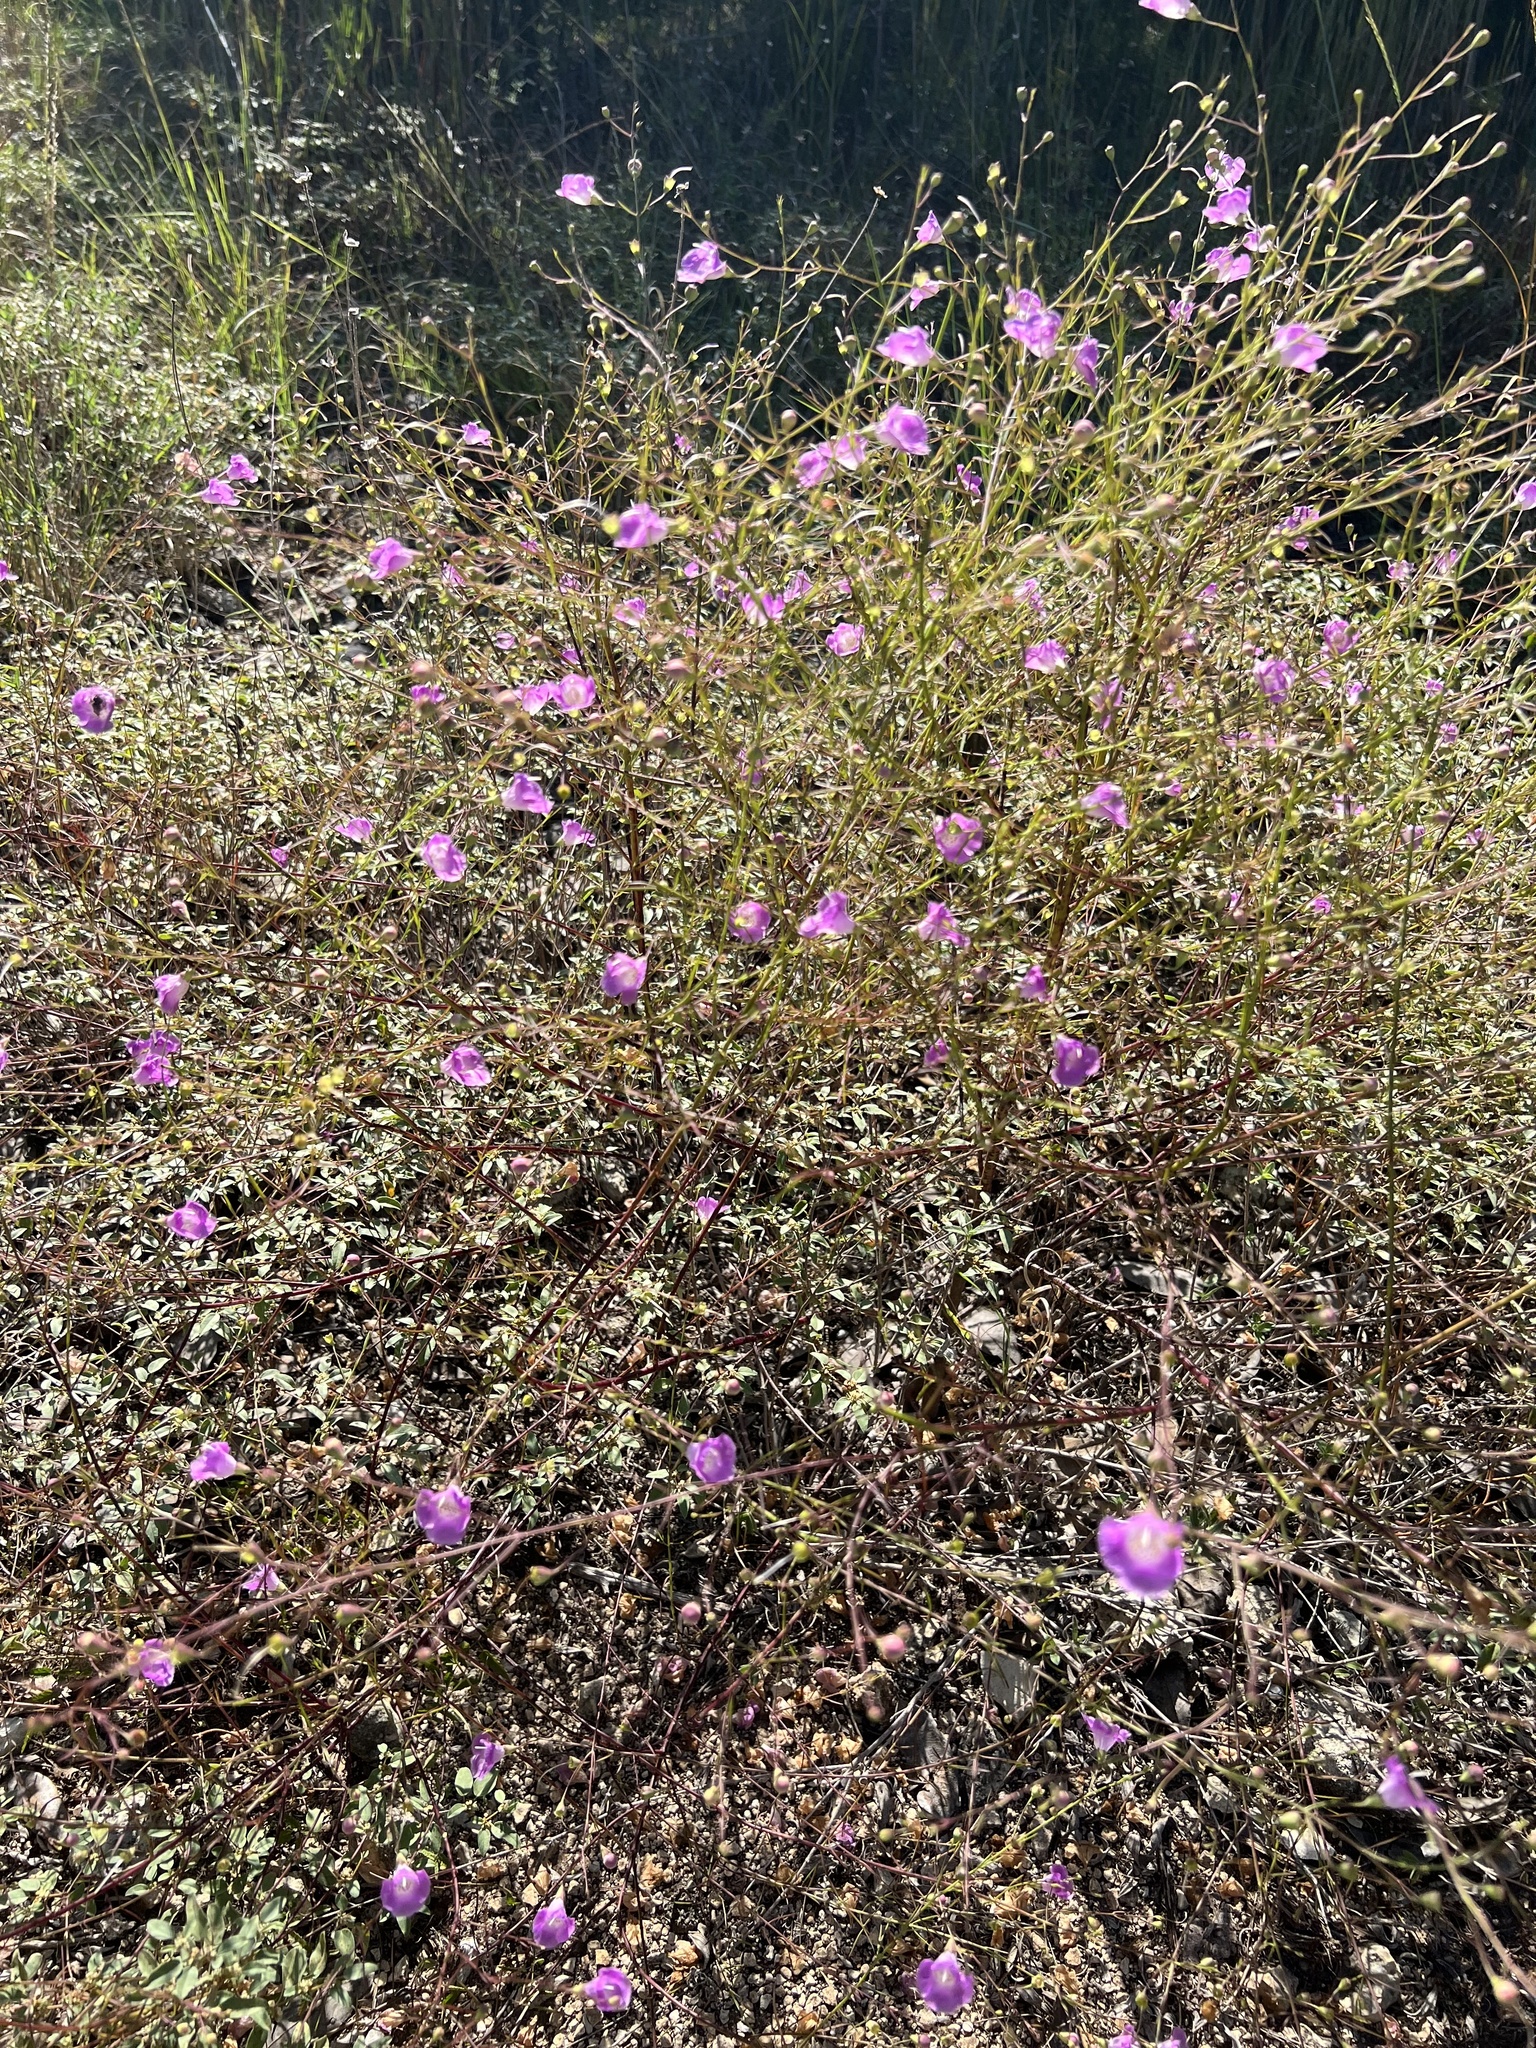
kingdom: Plantae
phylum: Tracheophyta
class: Magnoliopsida
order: Lamiales
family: Orobanchaceae
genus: Agalinis
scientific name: Agalinis edwardsiana
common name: Plateau-gerardia
